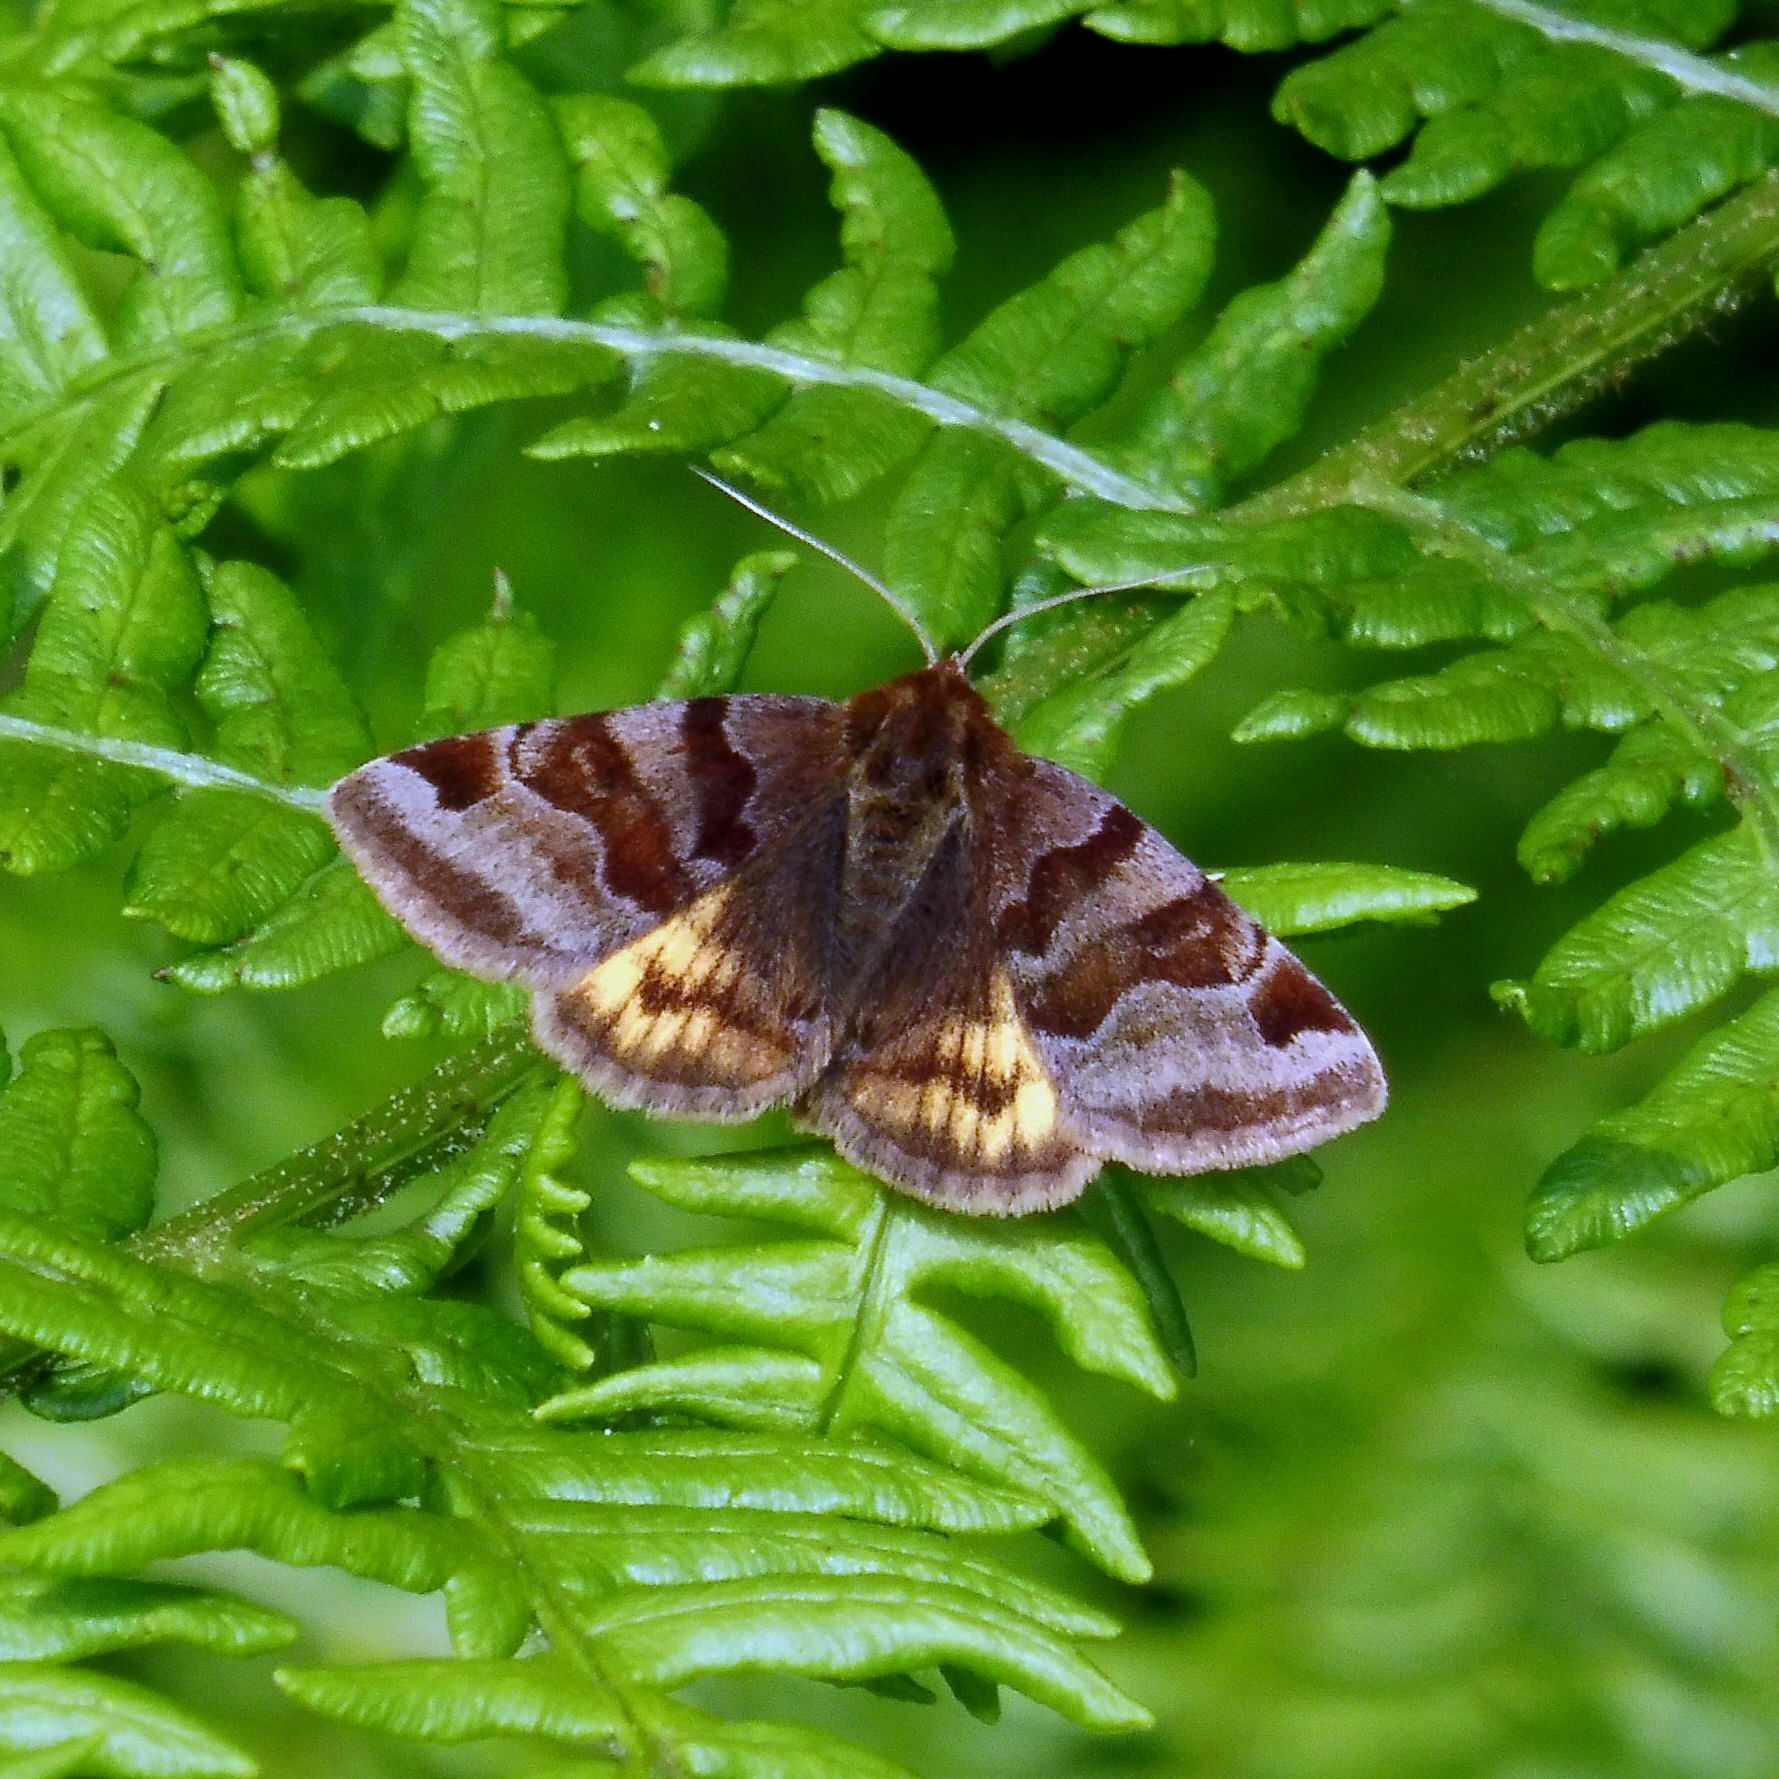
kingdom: Animalia
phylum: Arthropoda
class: Insecta
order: Lepidoptera
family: Erebidae
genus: Euclidia
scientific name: Euclidia glyphica
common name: Burnet companion
